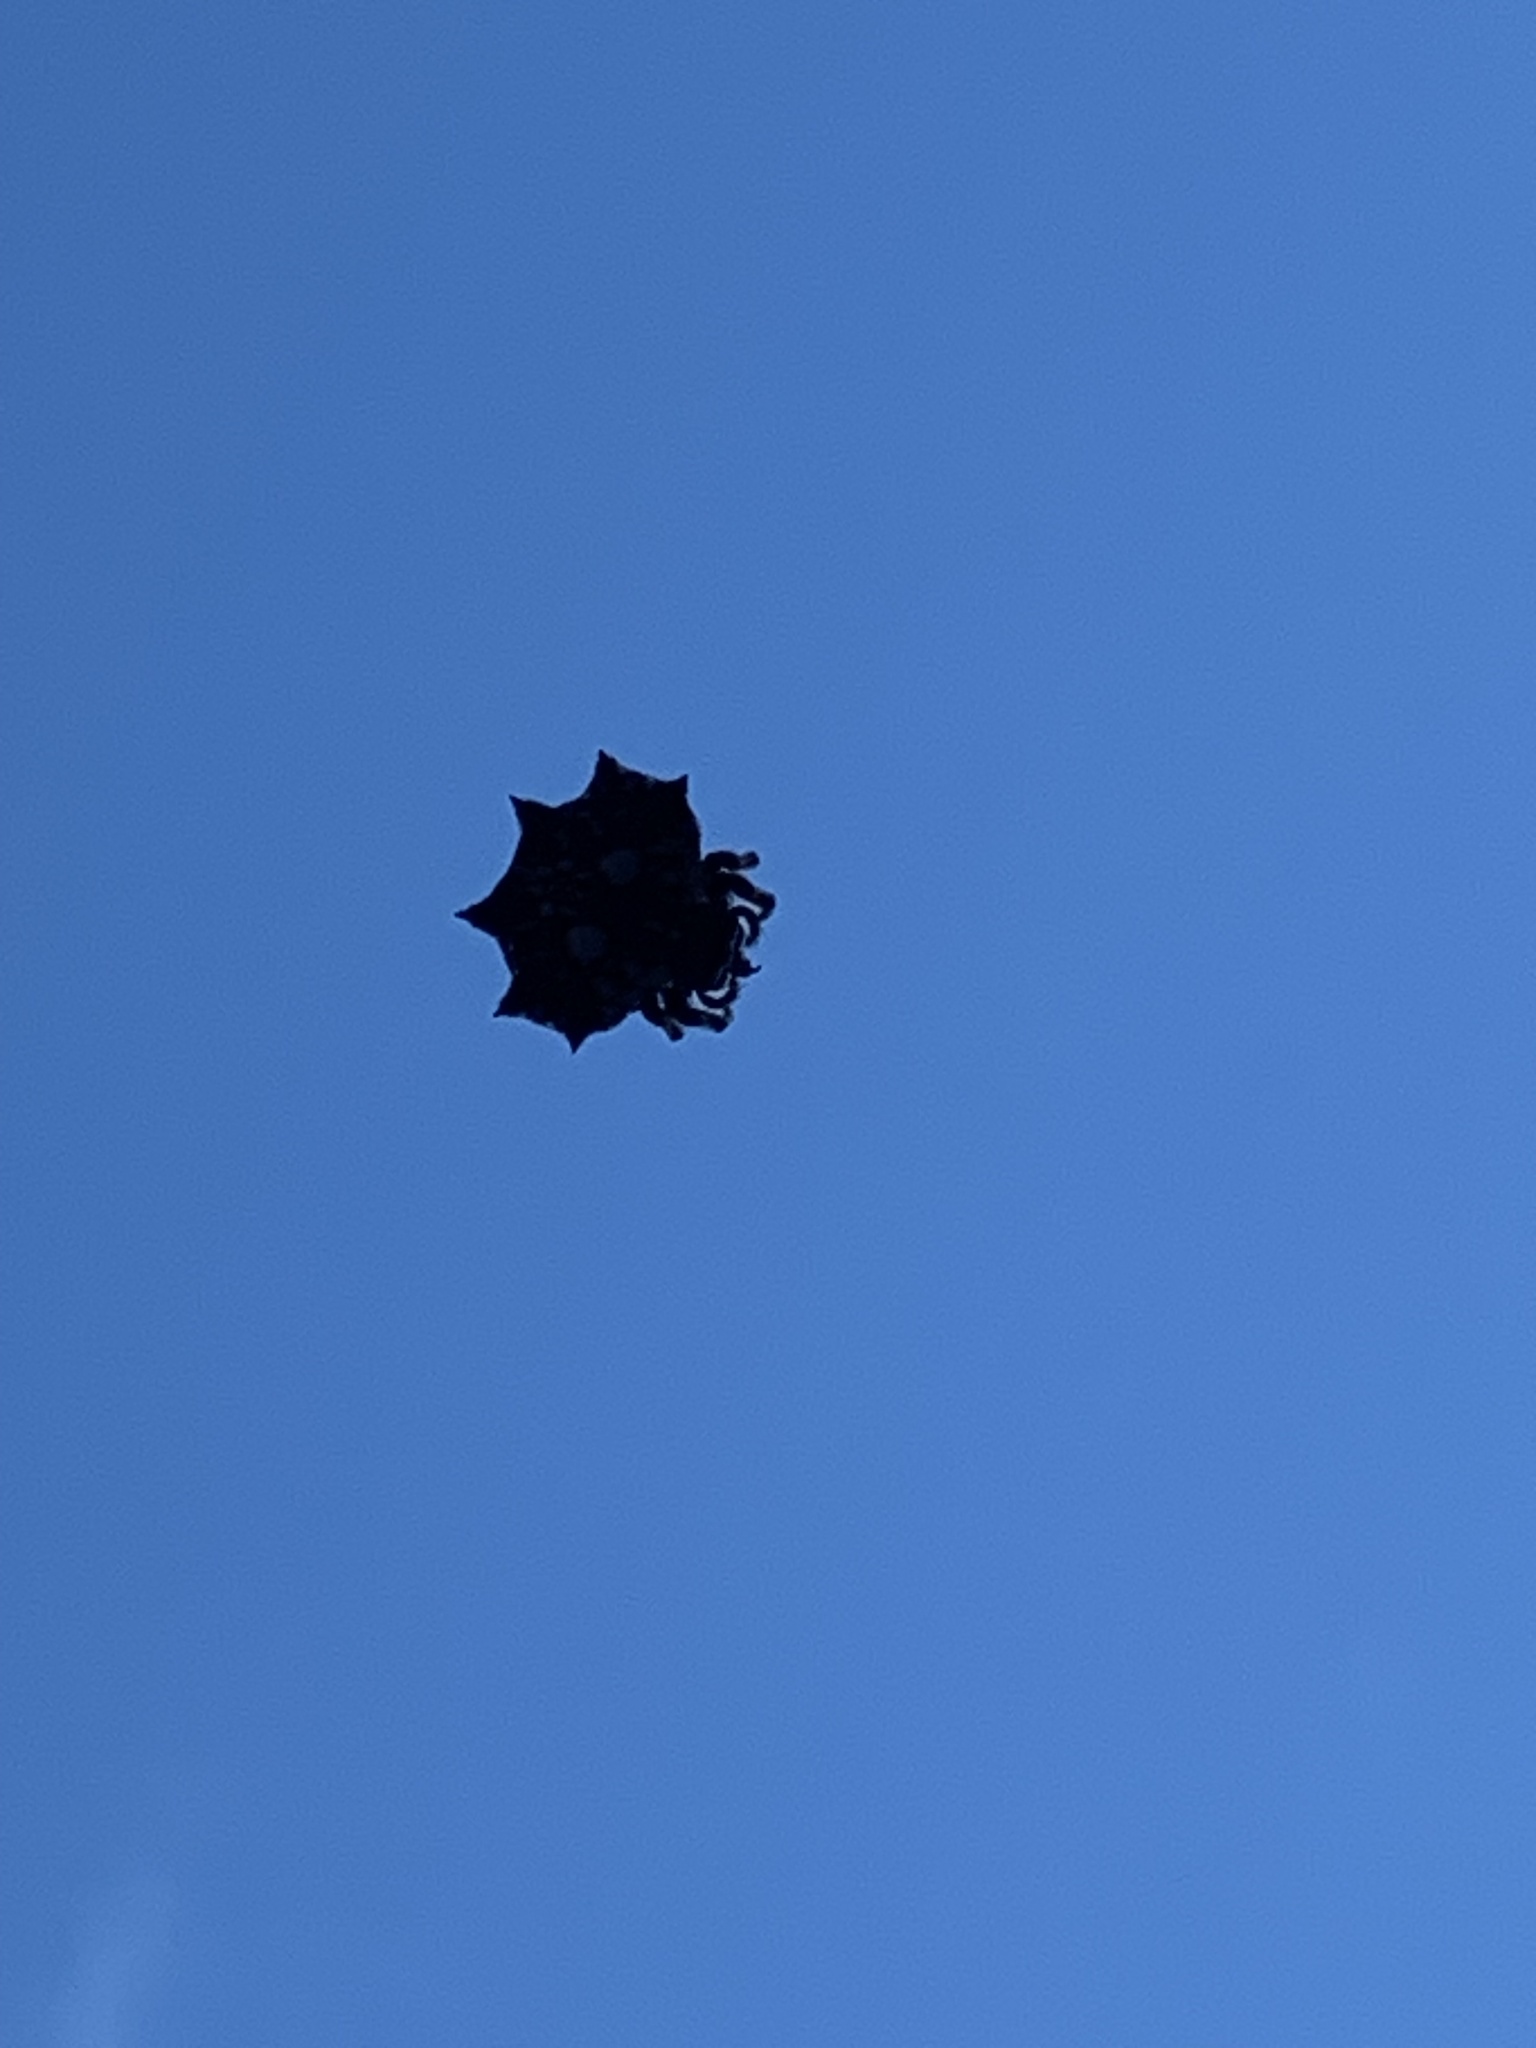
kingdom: Animalia
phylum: Arthropoda
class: Arachnida
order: Araneae
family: Araneidae
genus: Thelacantha
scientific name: Thelacantha brevispina
